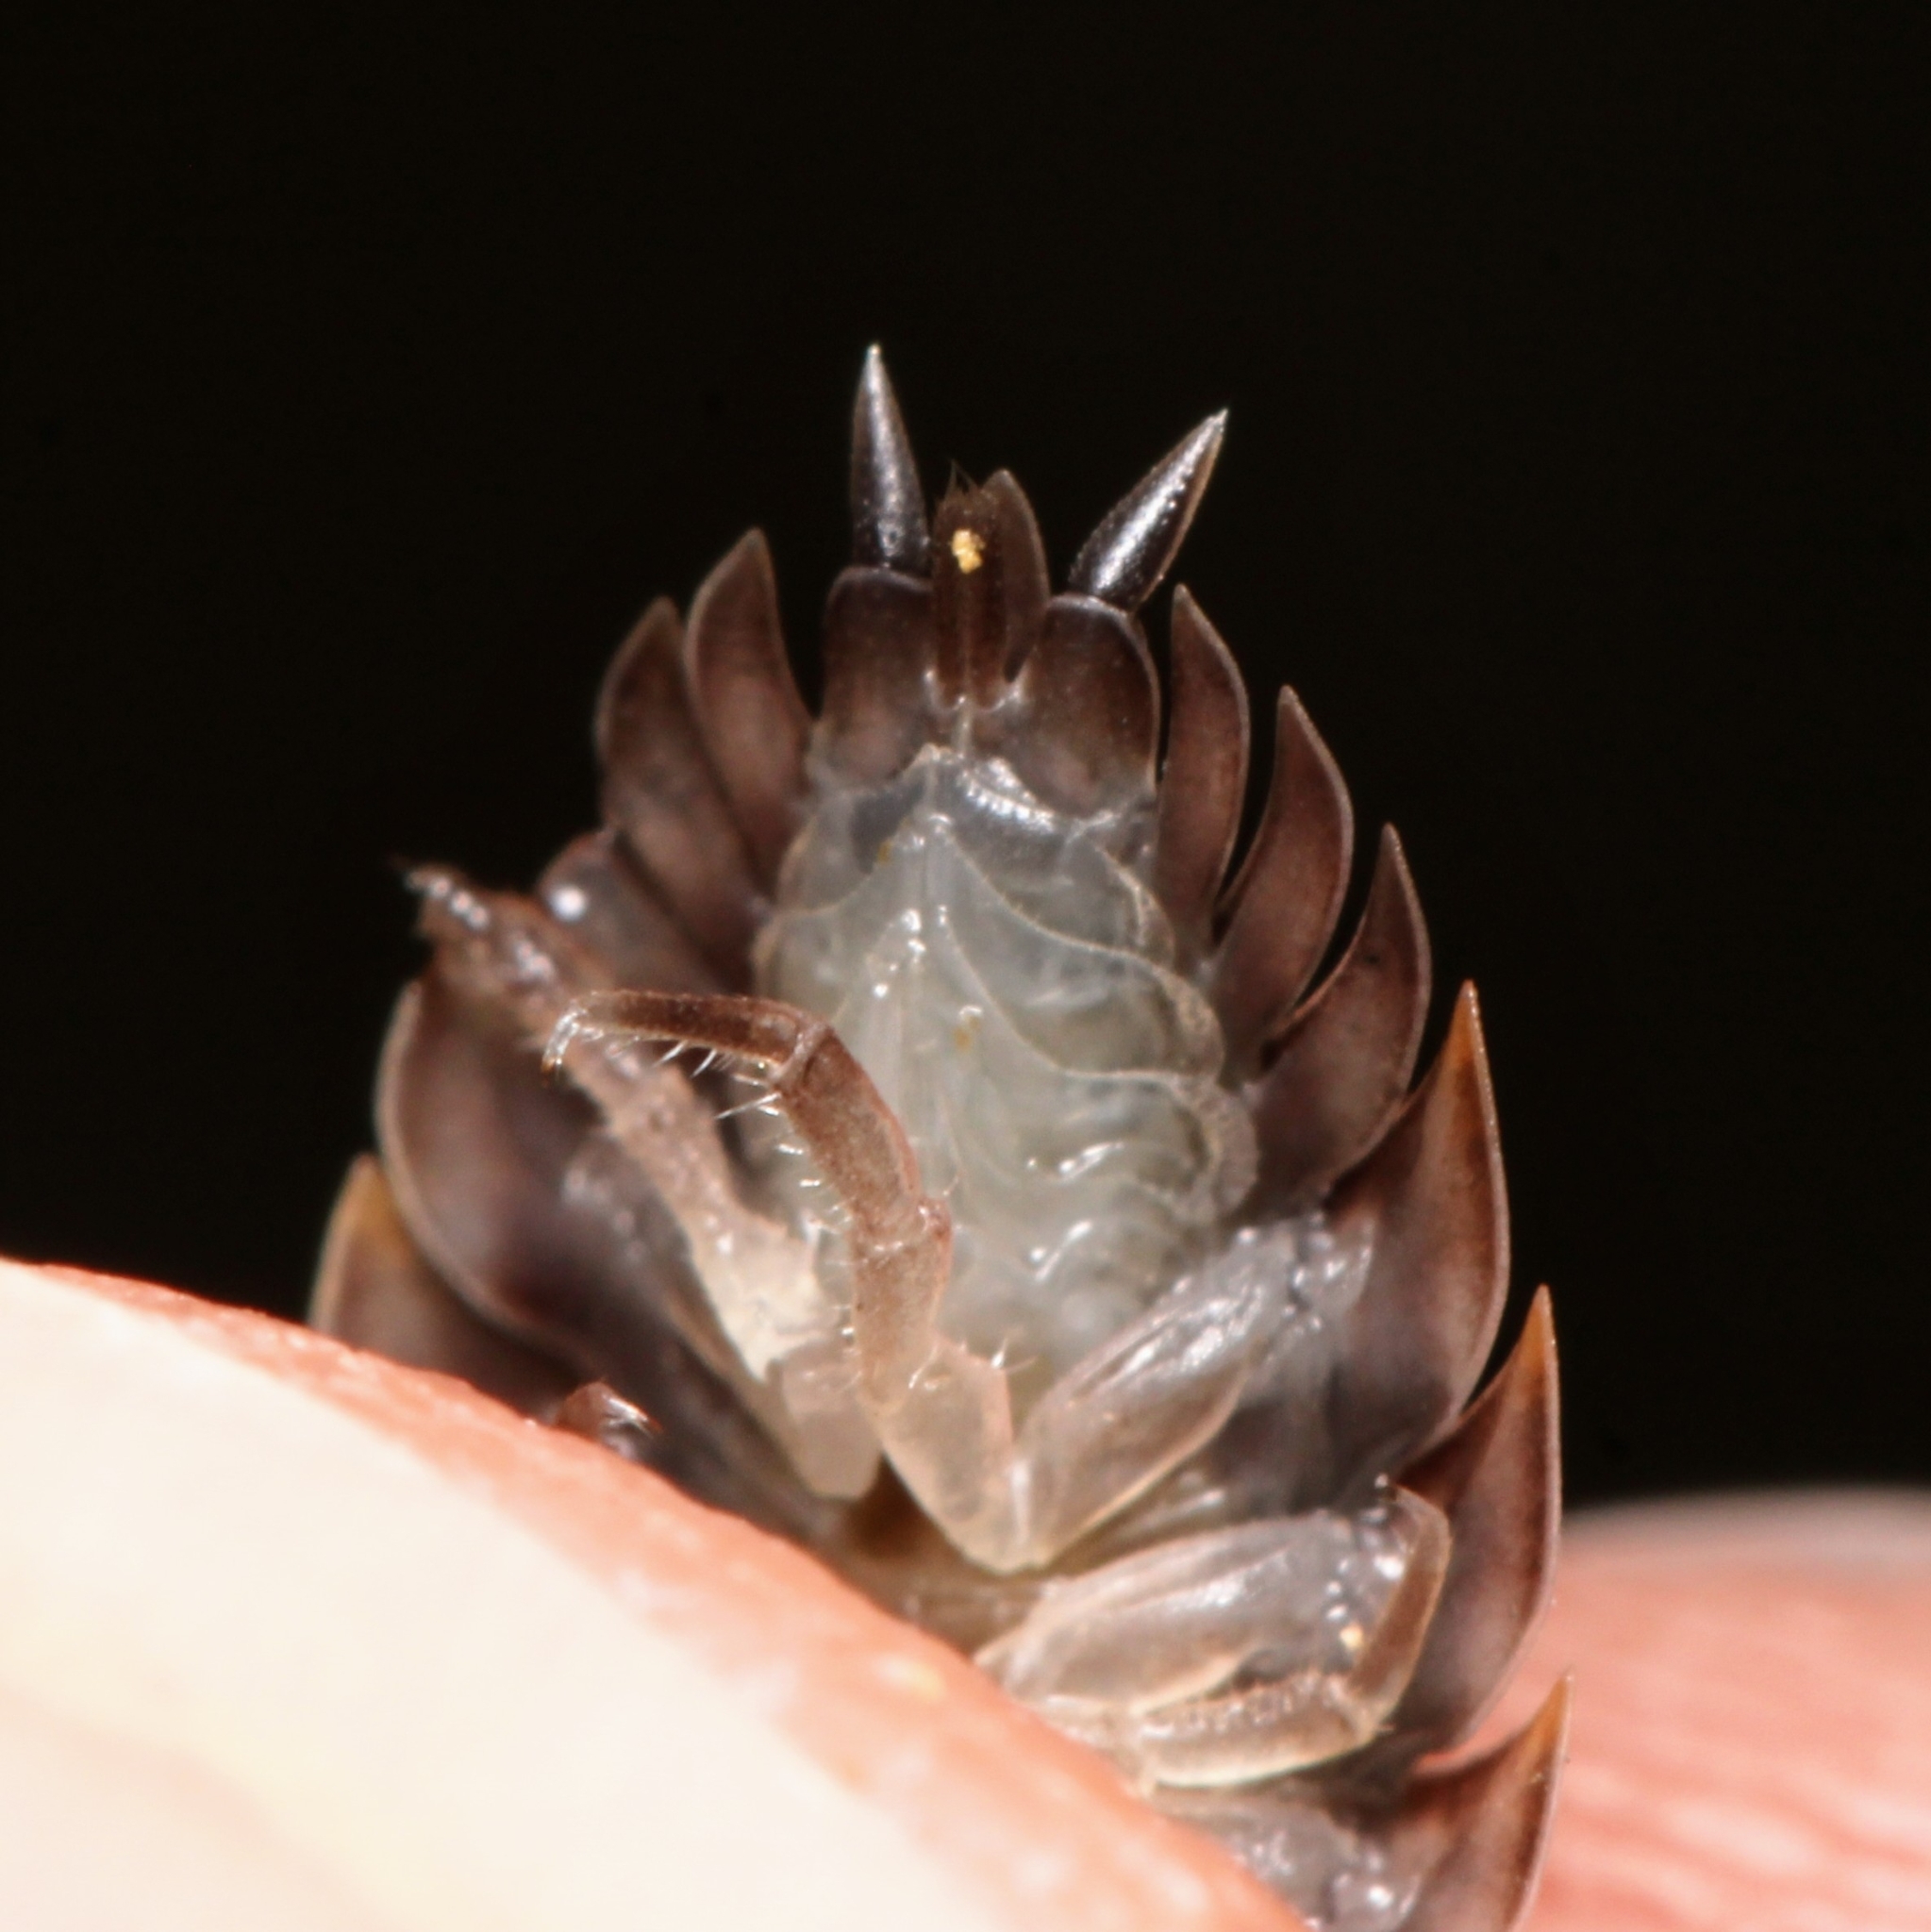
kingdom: Animalia
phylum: Arthropoda
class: Malacostraca
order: Isopoda
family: Oniscidae
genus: Oniscus
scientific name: Oniscus asellus
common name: Common shiny woodlouse
